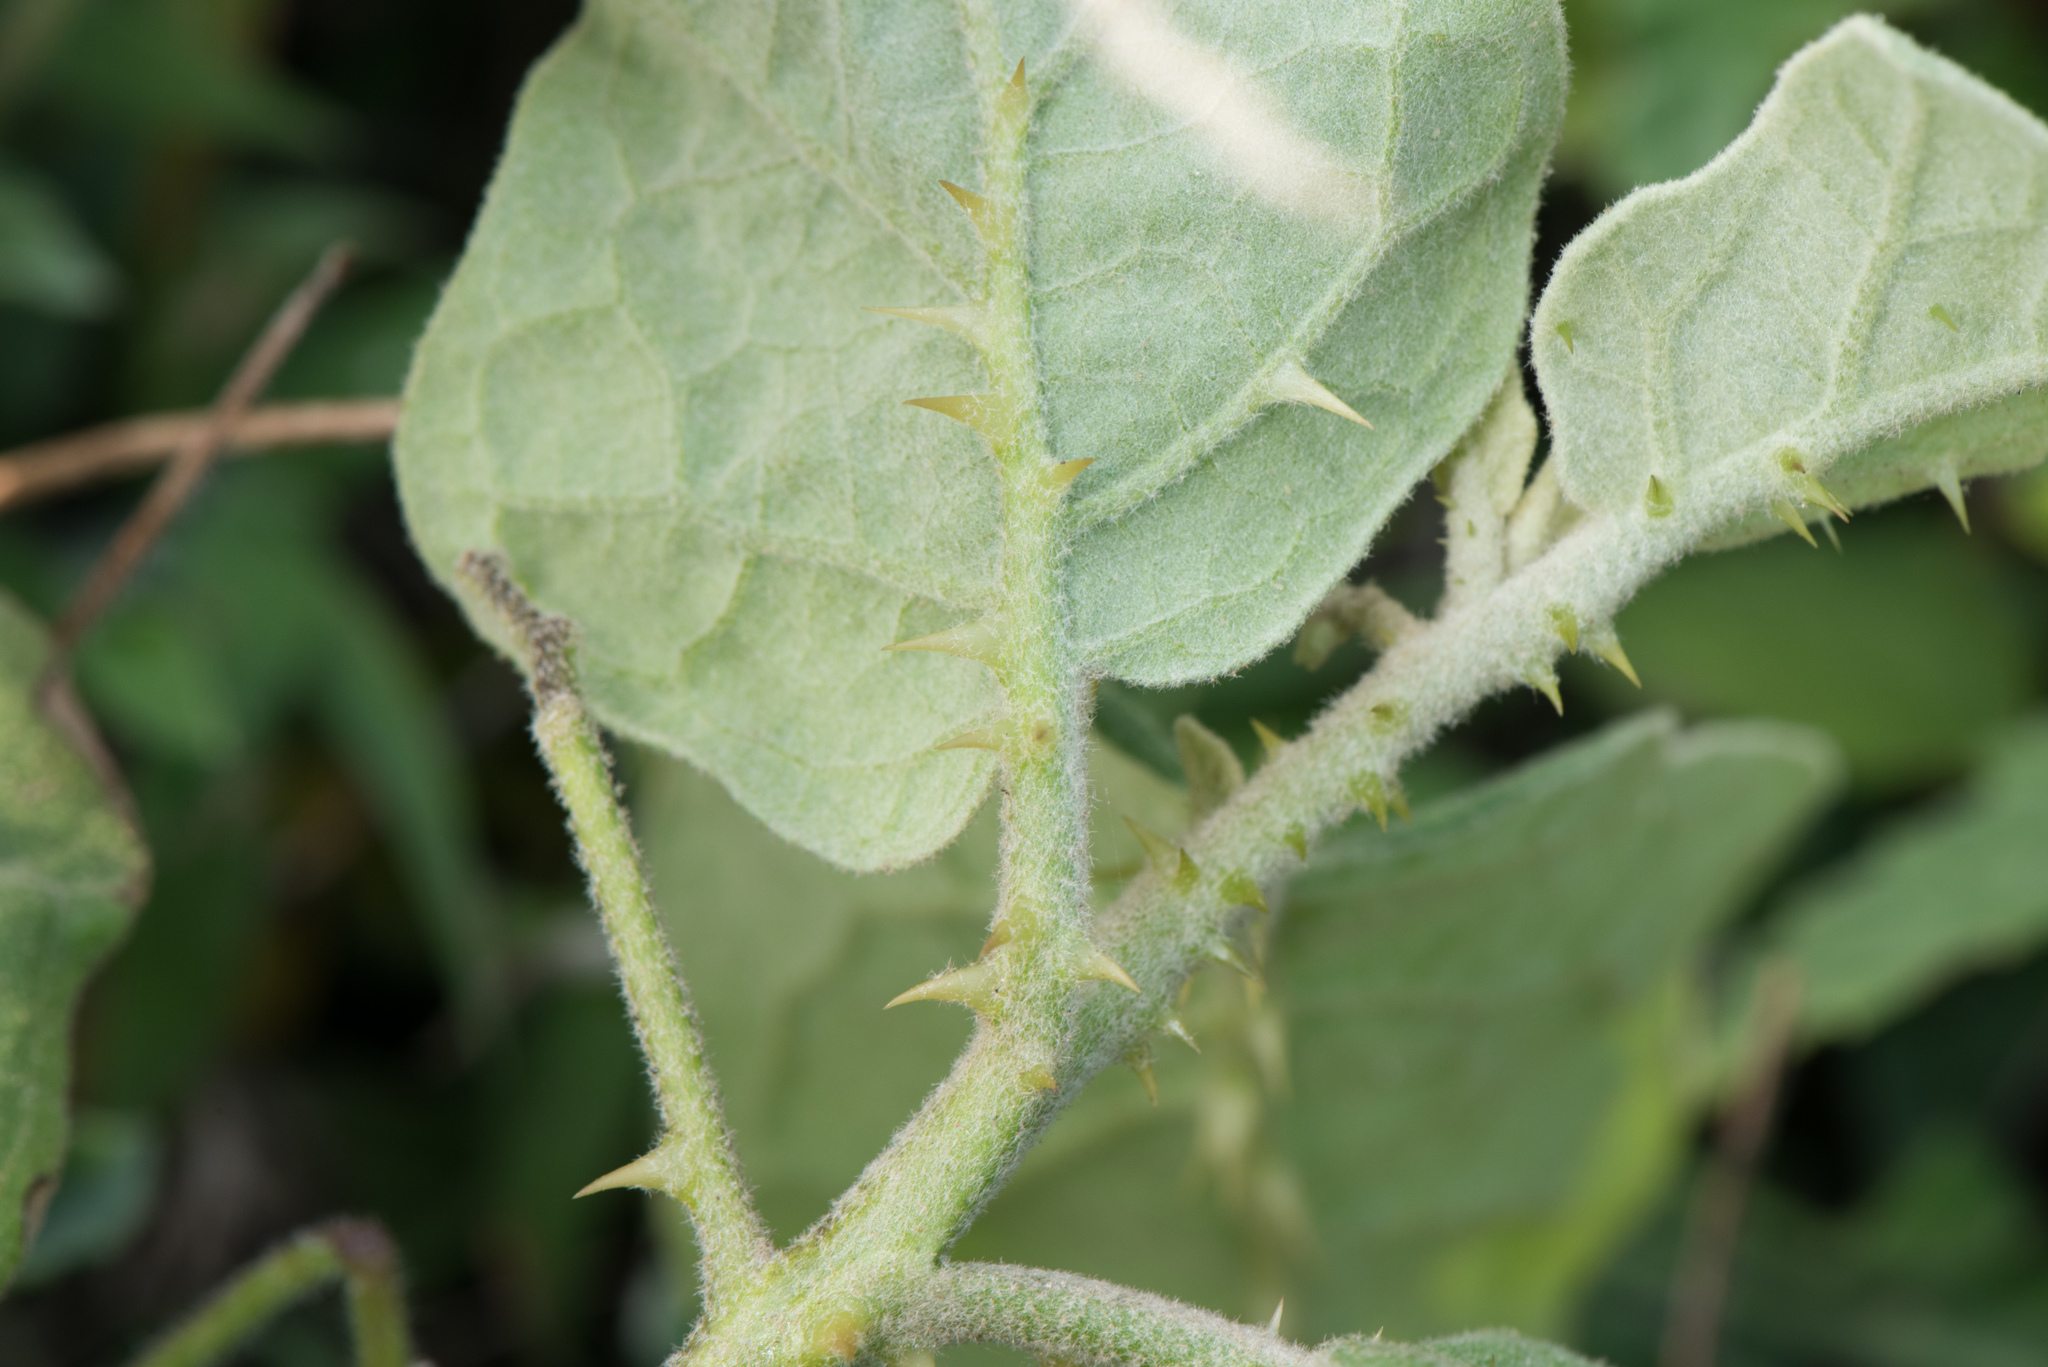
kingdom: Plantae
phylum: Tracheophyta
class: Magnoliopsida
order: Solanales
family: Solanaceae
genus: Solanum
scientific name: Solanum insanum
